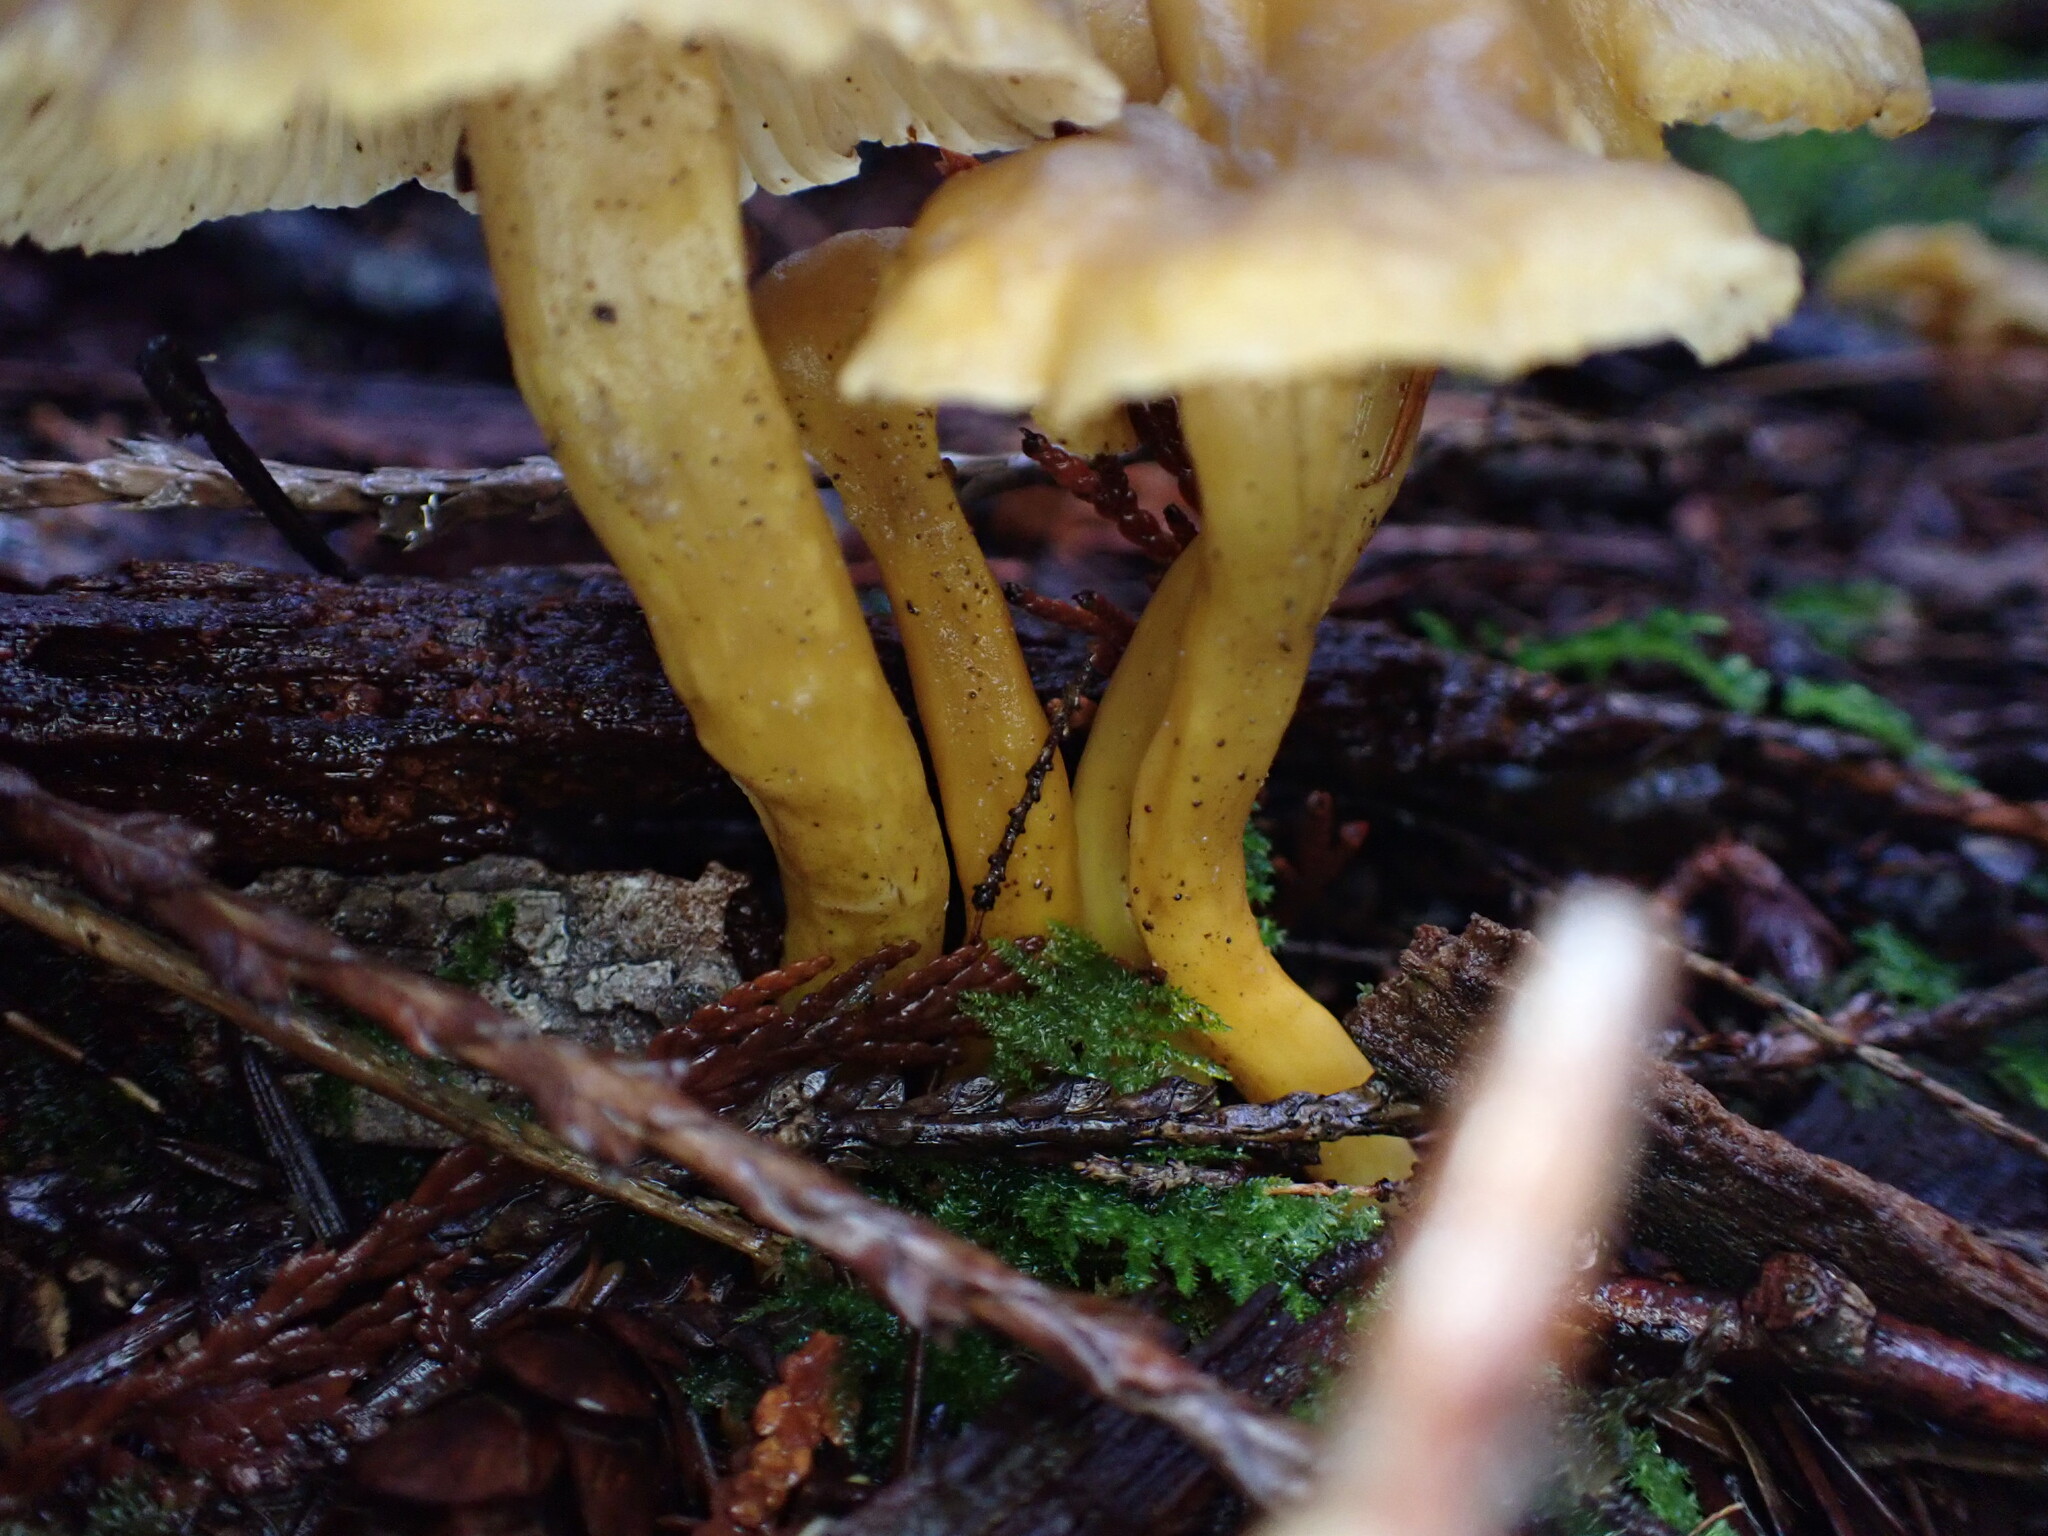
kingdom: Fungi
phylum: Basidiomycota
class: Agaricomycetes
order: Cantharellales
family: Hydnaceae
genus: Craterellus
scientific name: Craterellus tubaeformis
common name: Yellowfoot
